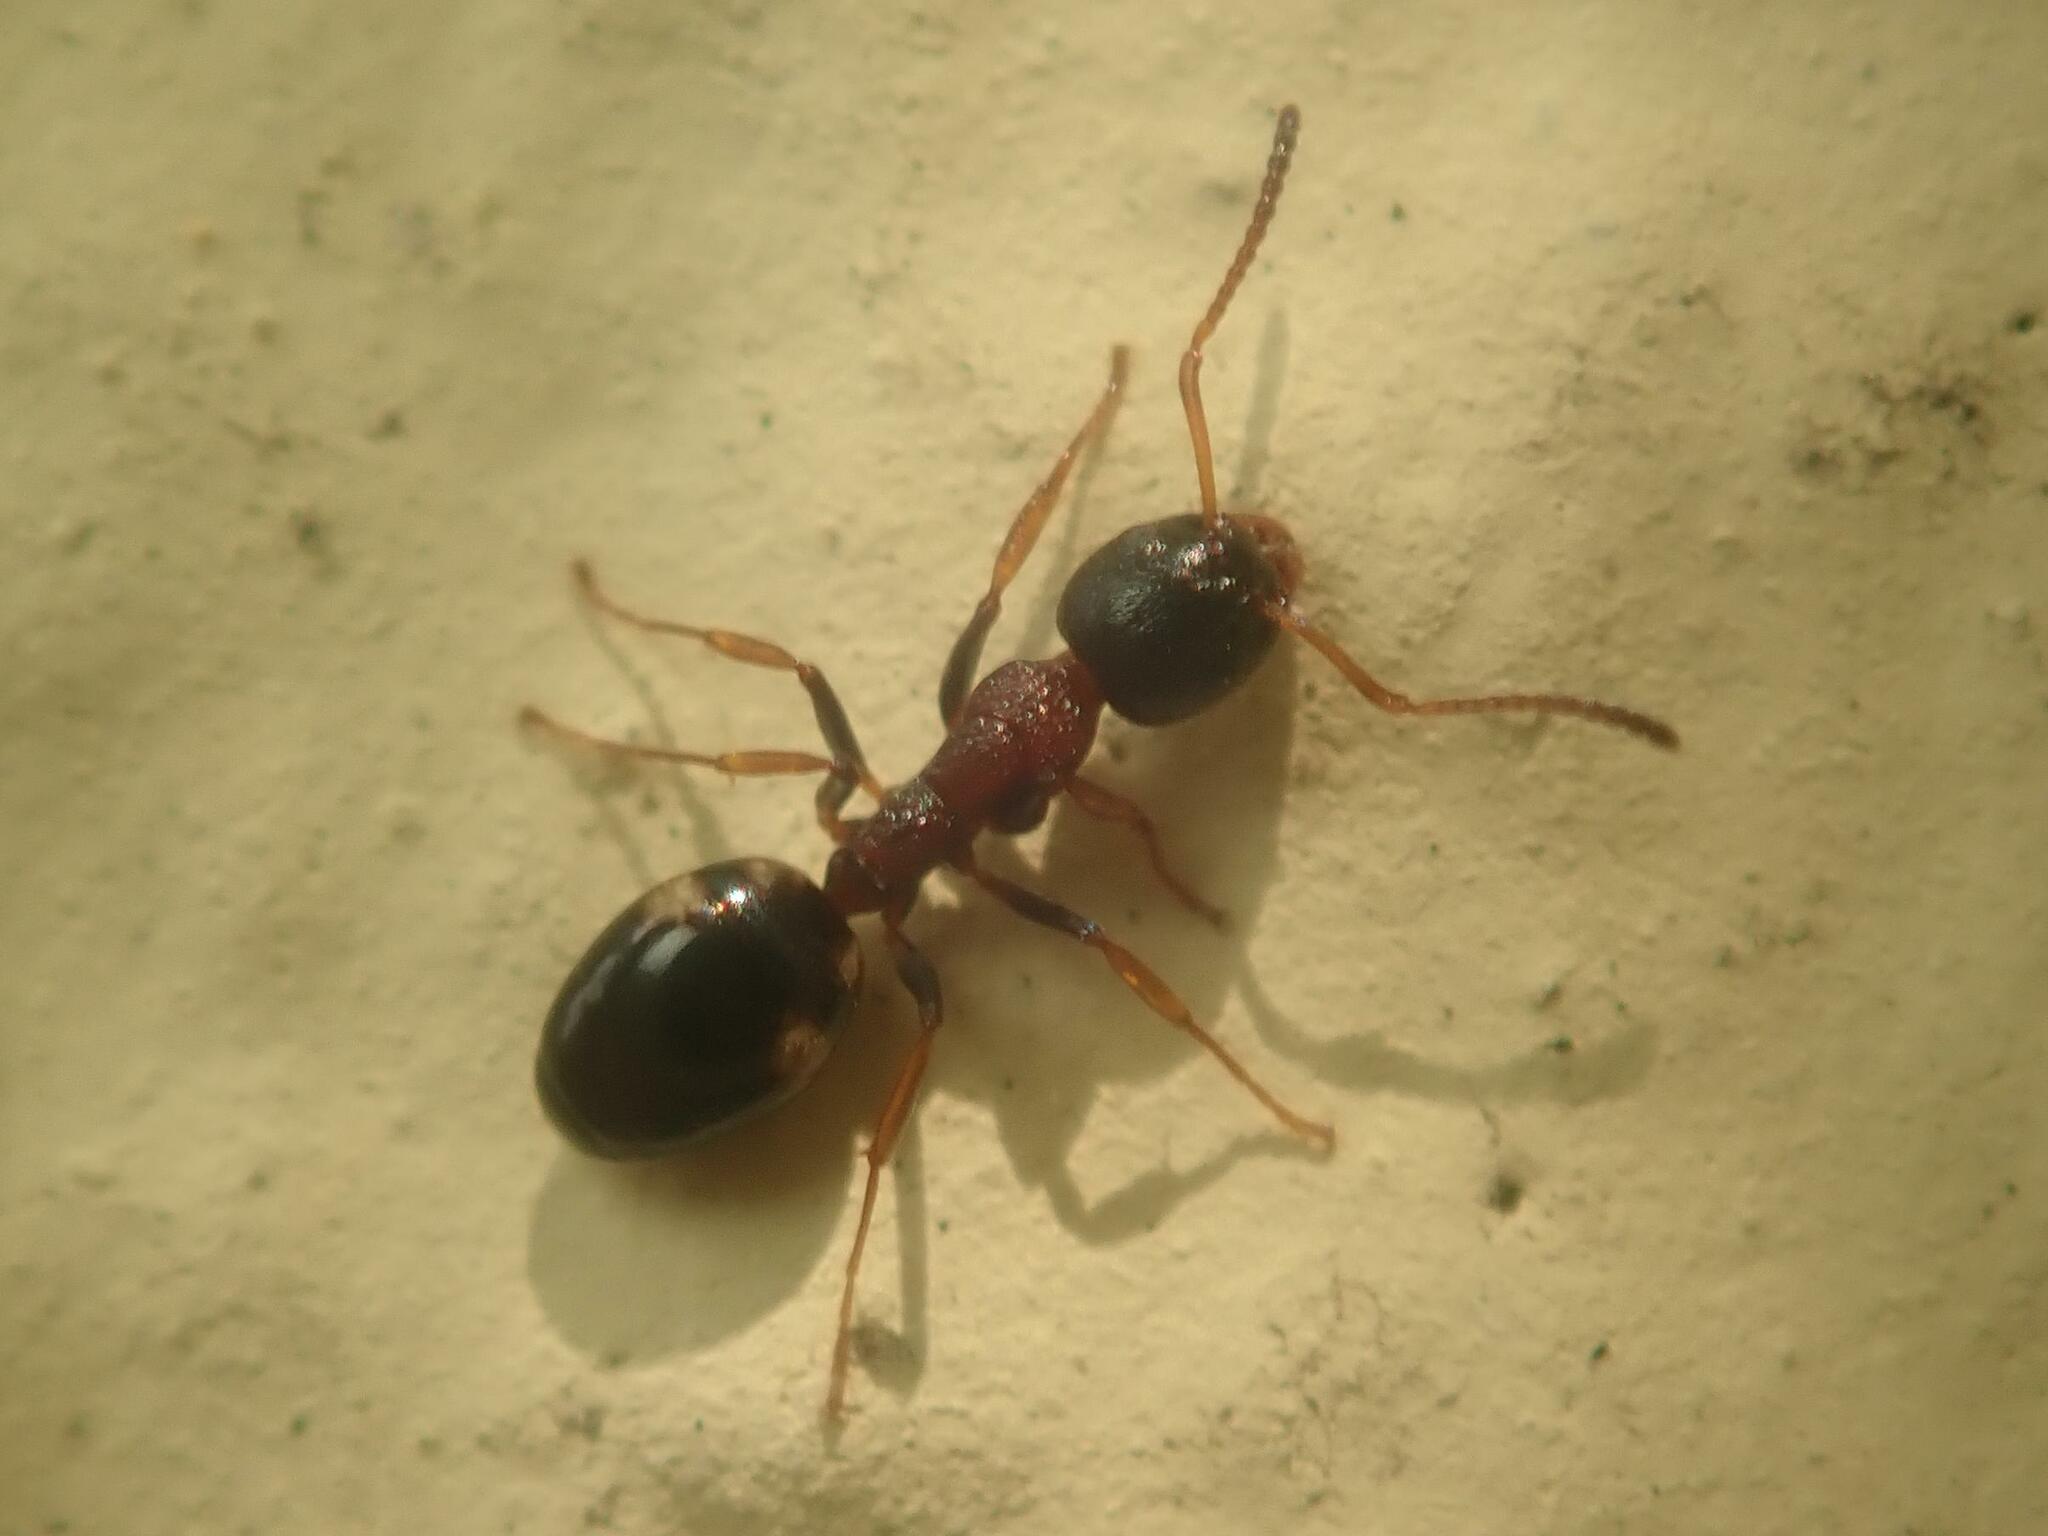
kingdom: Animalia
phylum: Arthropoda
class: Insecta
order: Hymenoptera
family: Formicidae
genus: Dolichoderus
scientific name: Dolichoderus quadripunctatus
